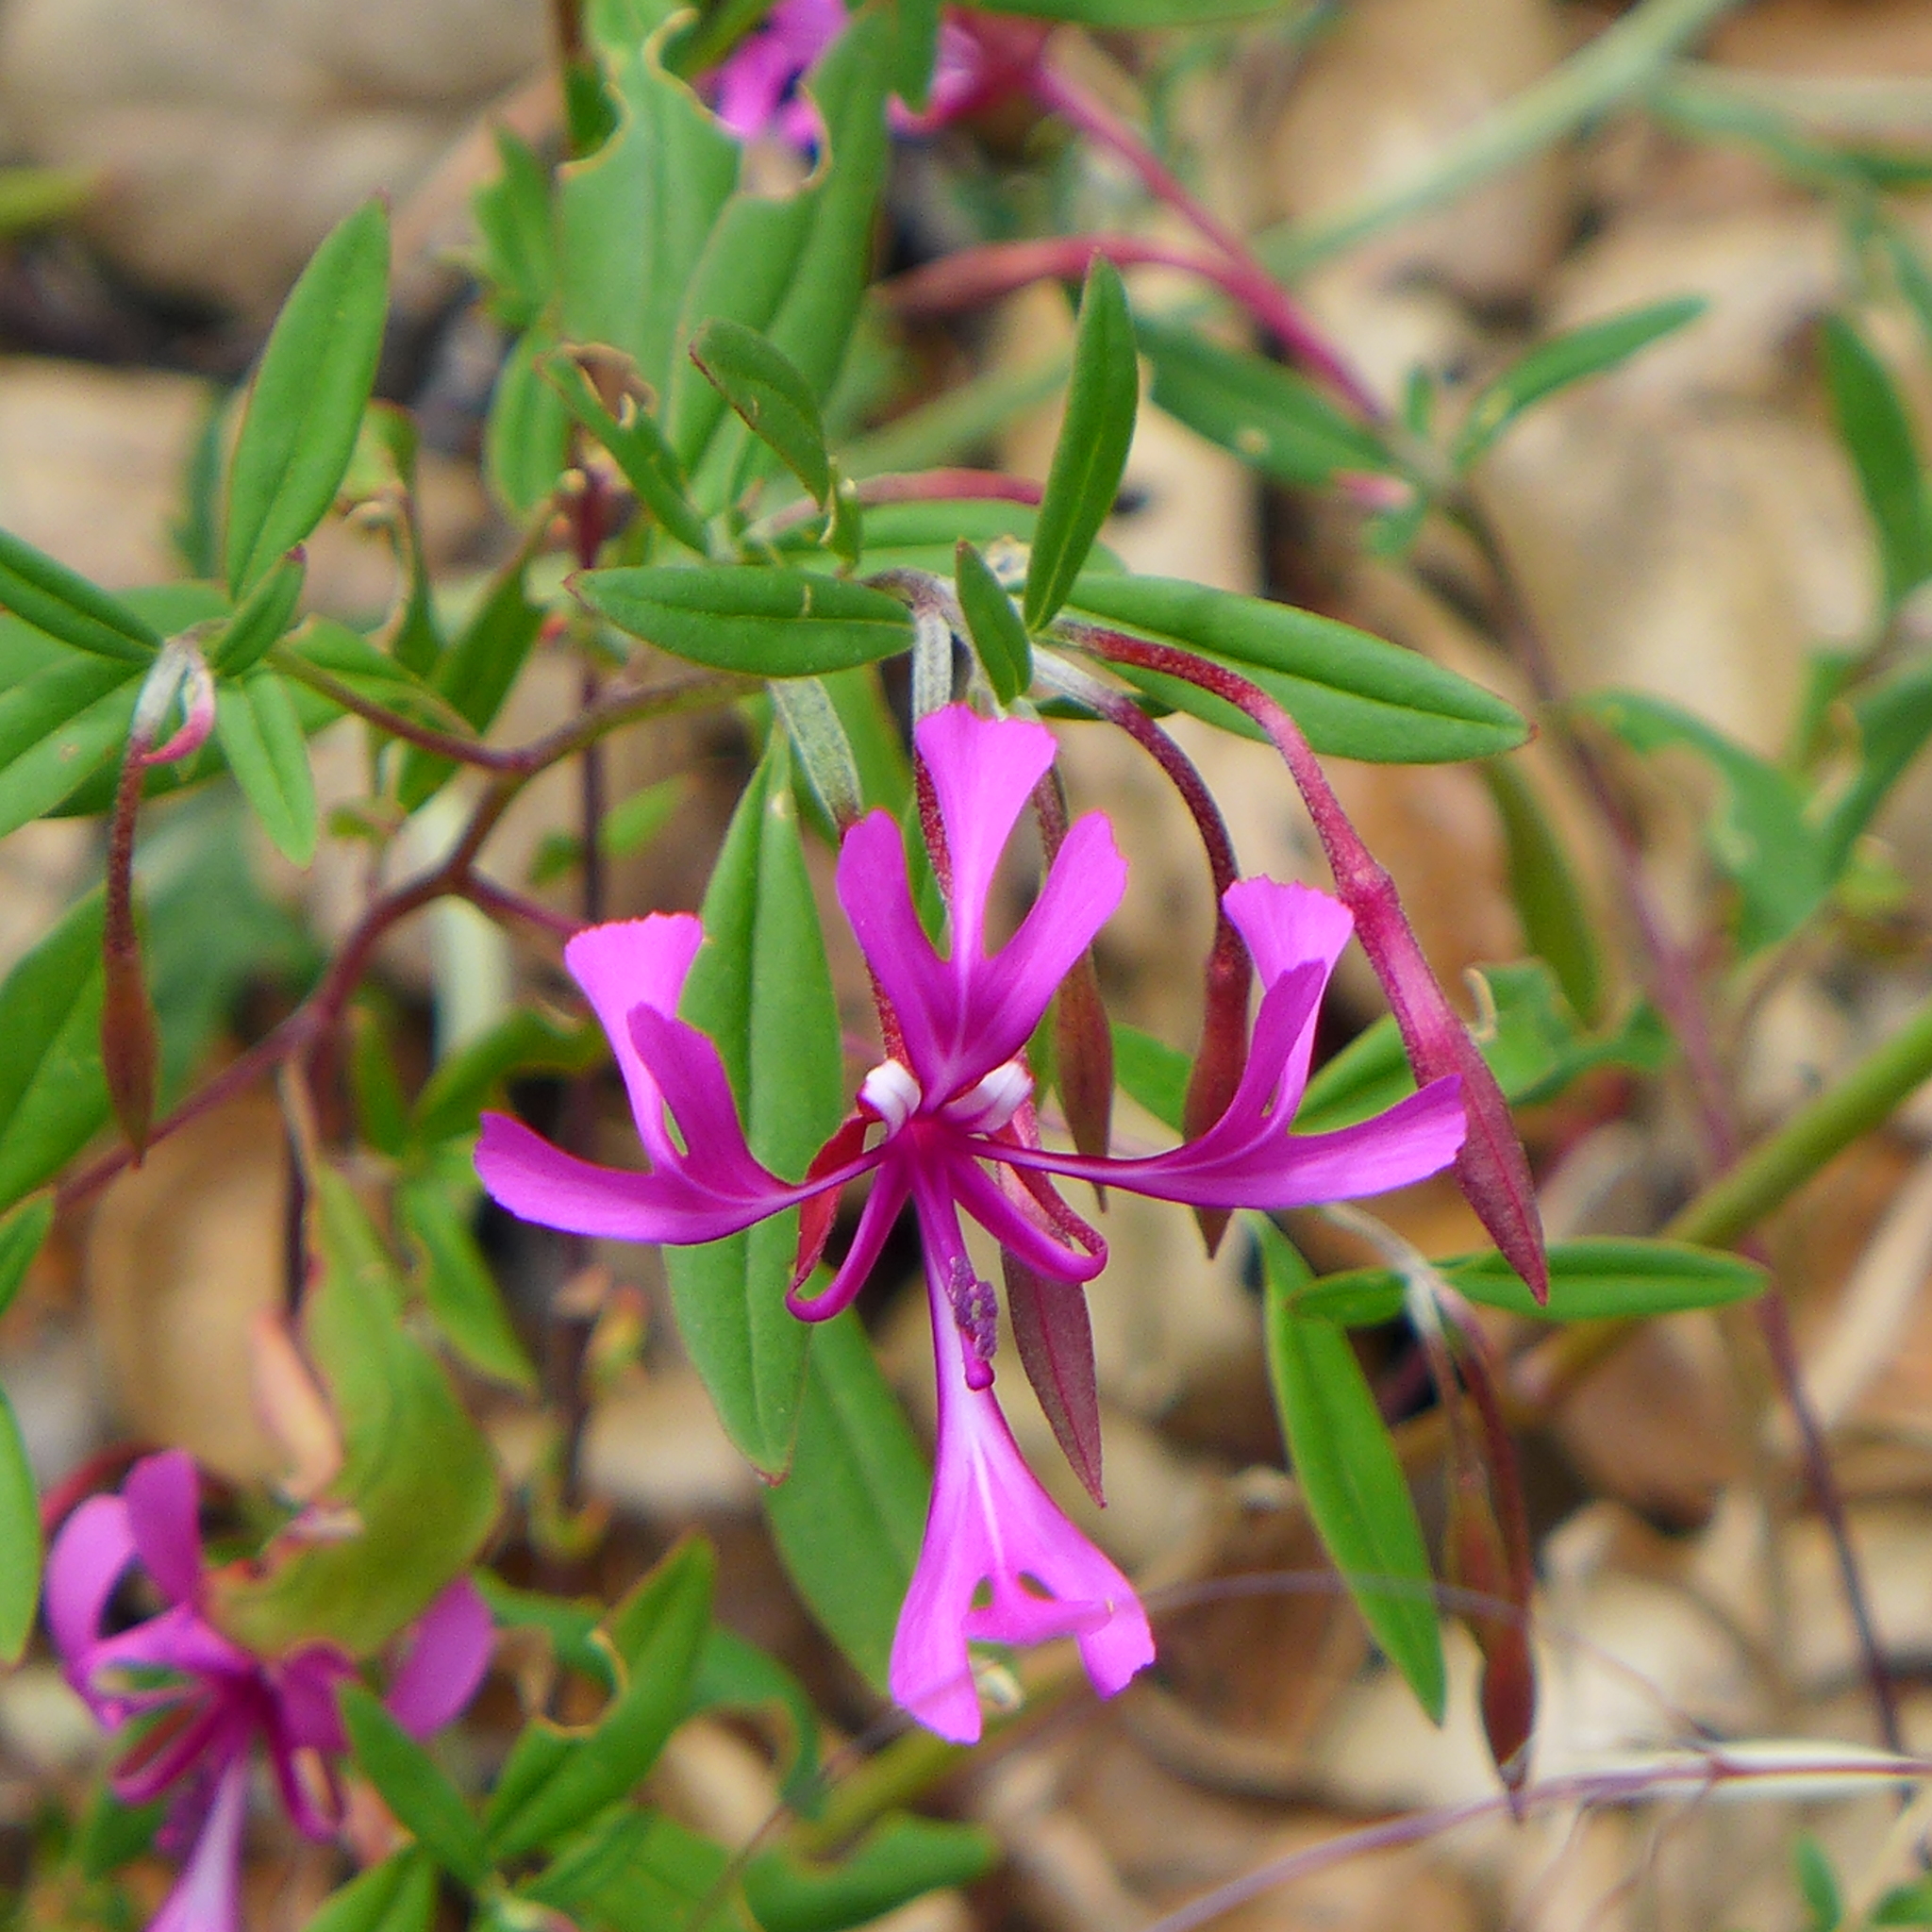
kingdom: Plantae
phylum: Tracheophyta
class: Magnoliopsida
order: Myrtales
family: Onagraceae
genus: Clarkia
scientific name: Clarkia concinna
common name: Red-ribbons
